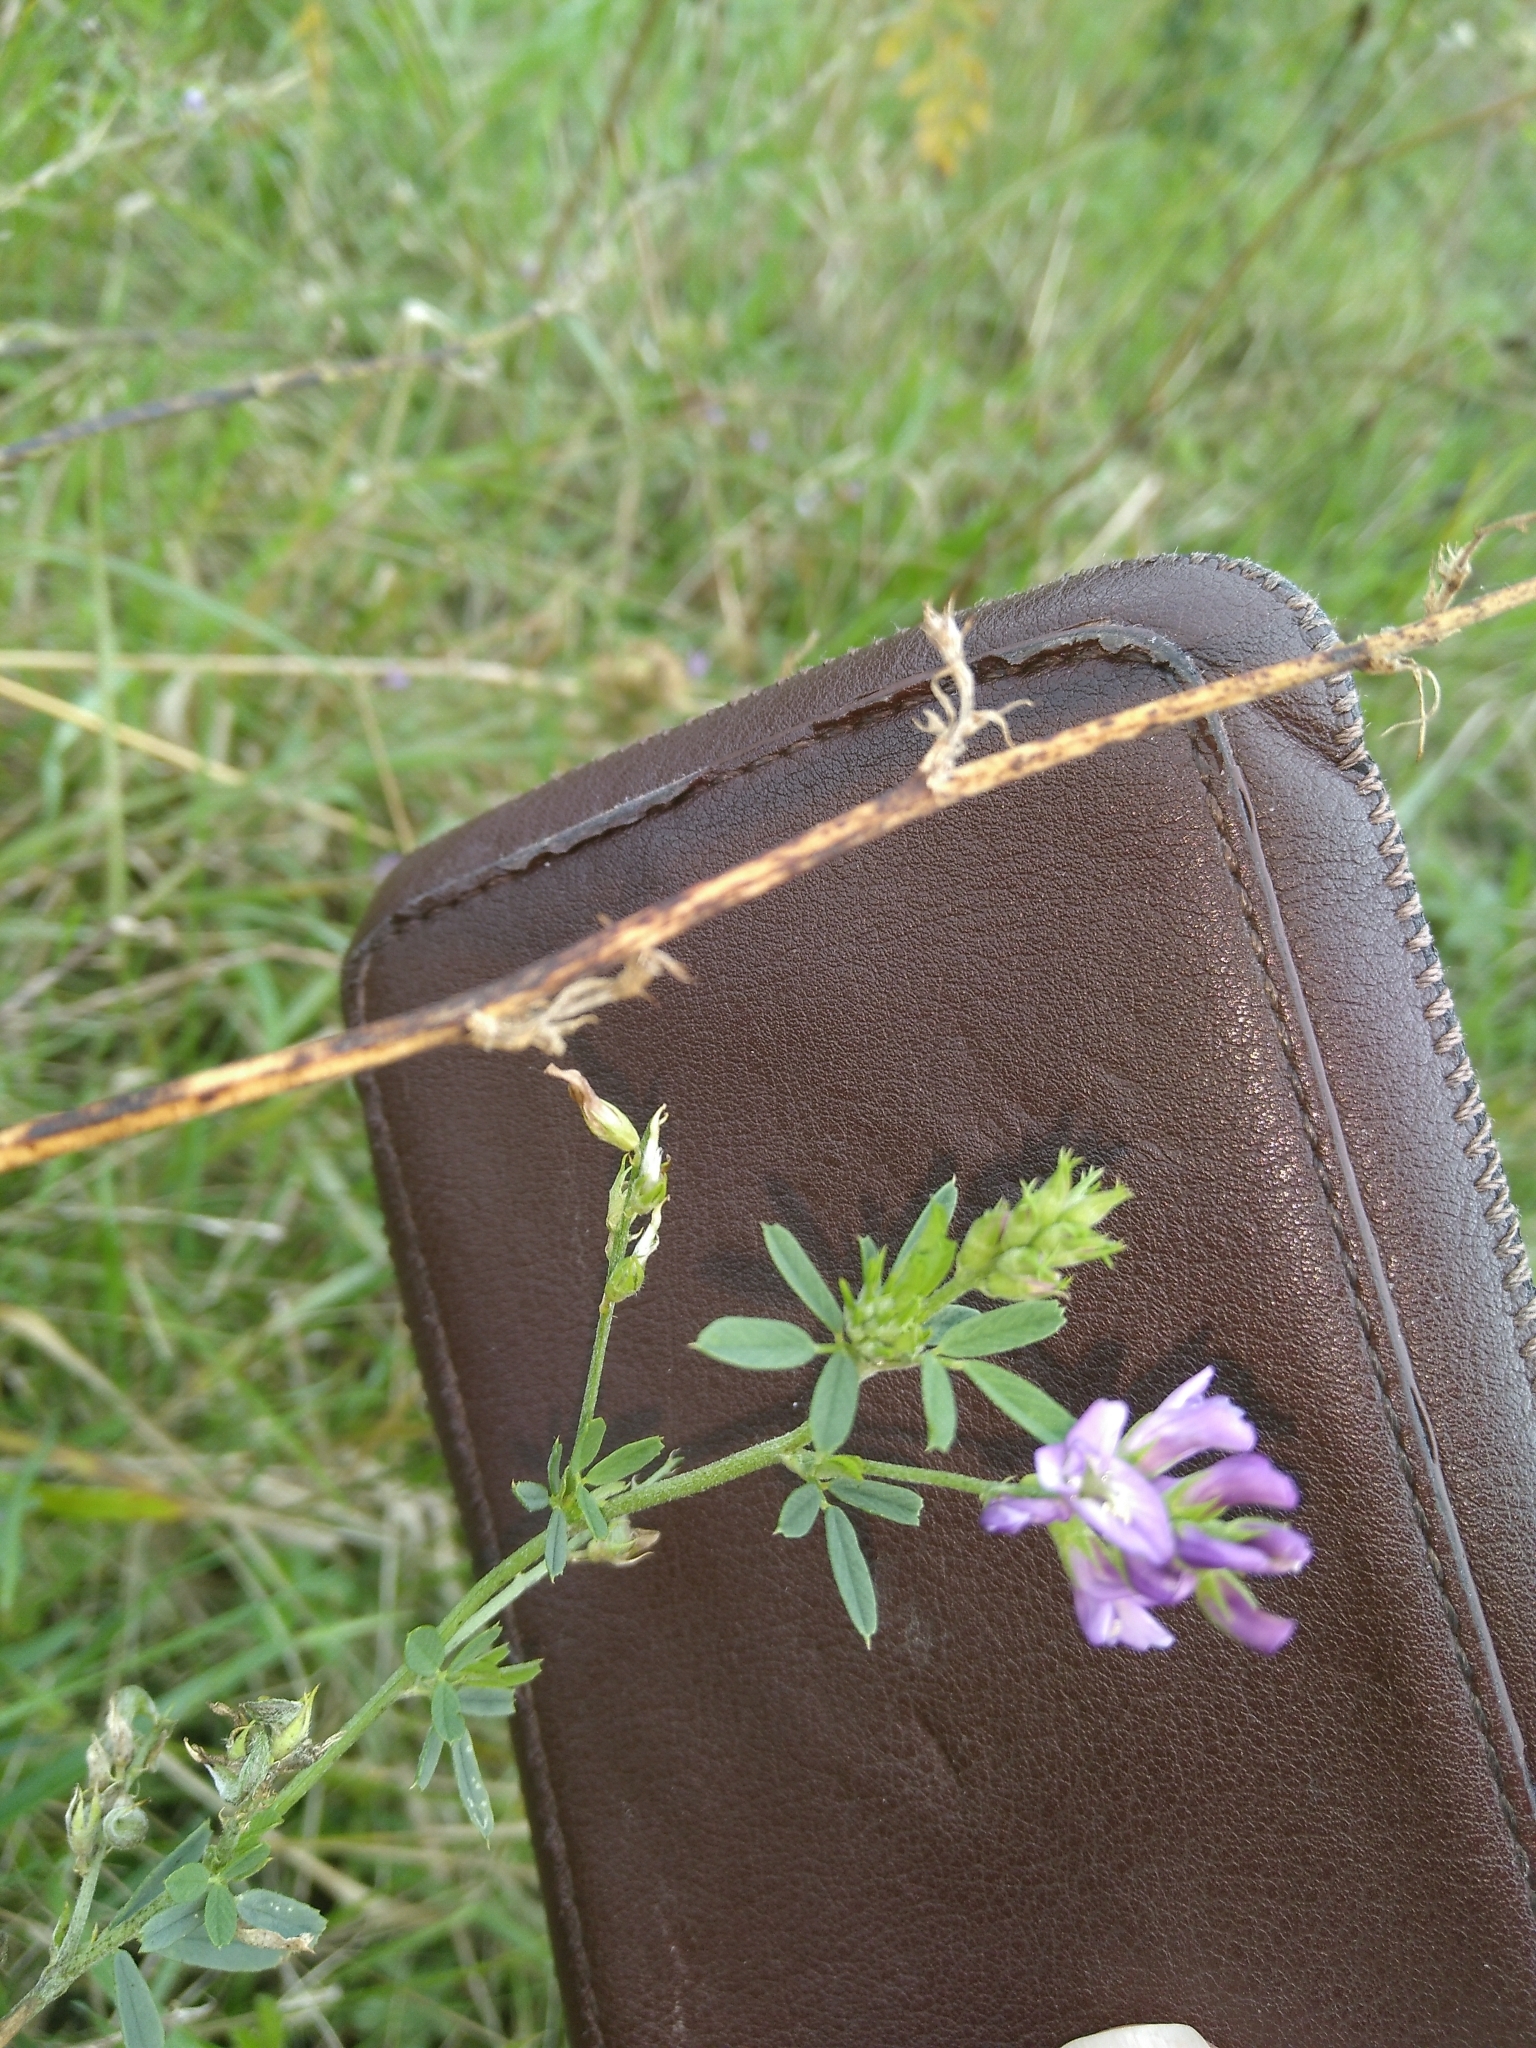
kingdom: Plantae
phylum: Tracheophyta
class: Magnoliopsida
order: Fabales
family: Fabaceae
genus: Medicago
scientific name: Medicago sativa
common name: Alfalfa
